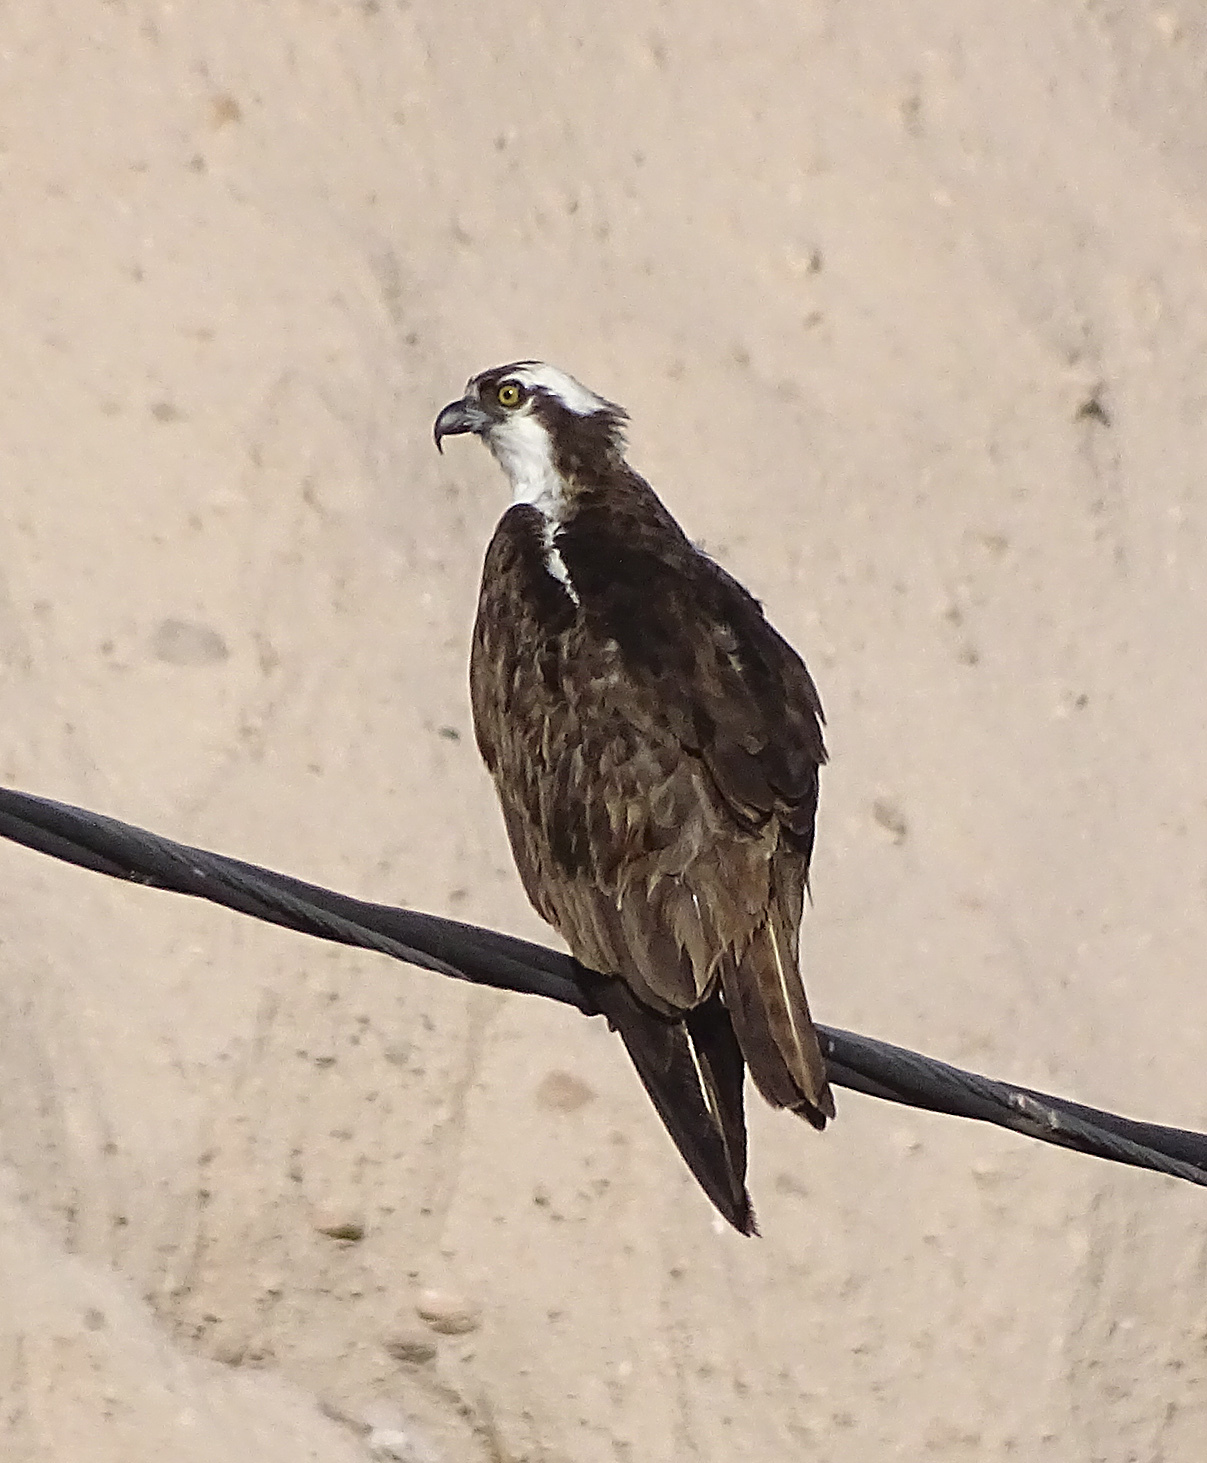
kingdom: Animalia
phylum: Chordata
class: Aves
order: Accipitriformes
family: Pandionidae
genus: Pandion
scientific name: Pandion haliaetus
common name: Osprey
